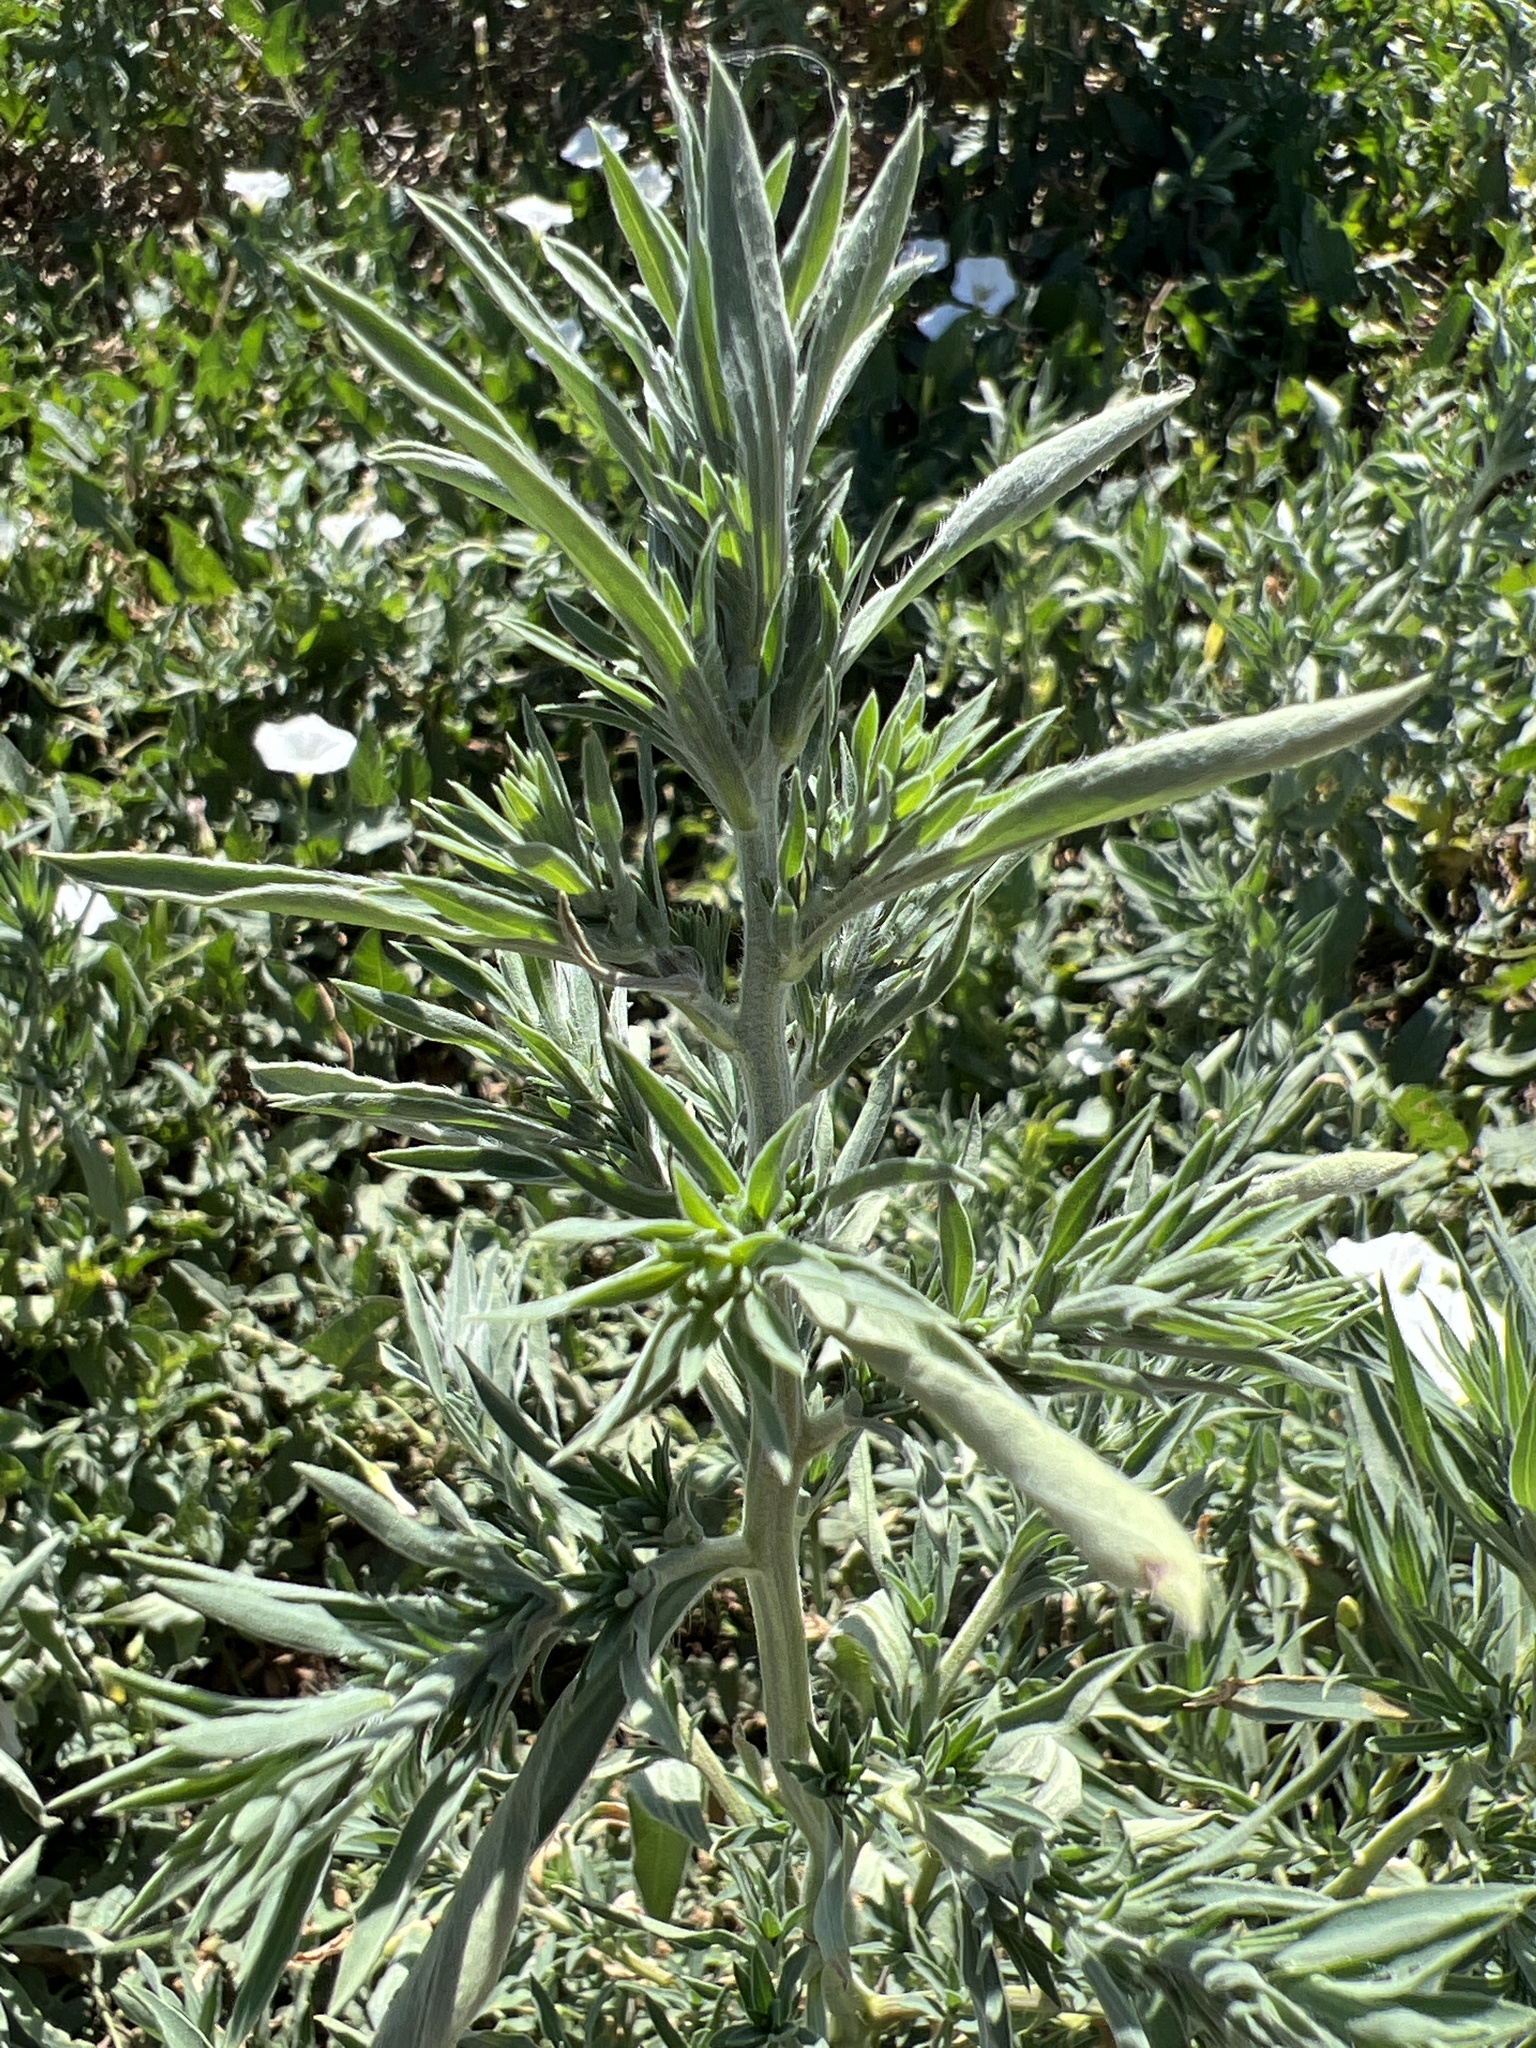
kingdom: Plantae
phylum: Tracheophyta
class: Magnoliopsida
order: Caryophyllales
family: Amaranthaceae
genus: Bassia
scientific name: Bassia scoparia
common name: Belvedere
